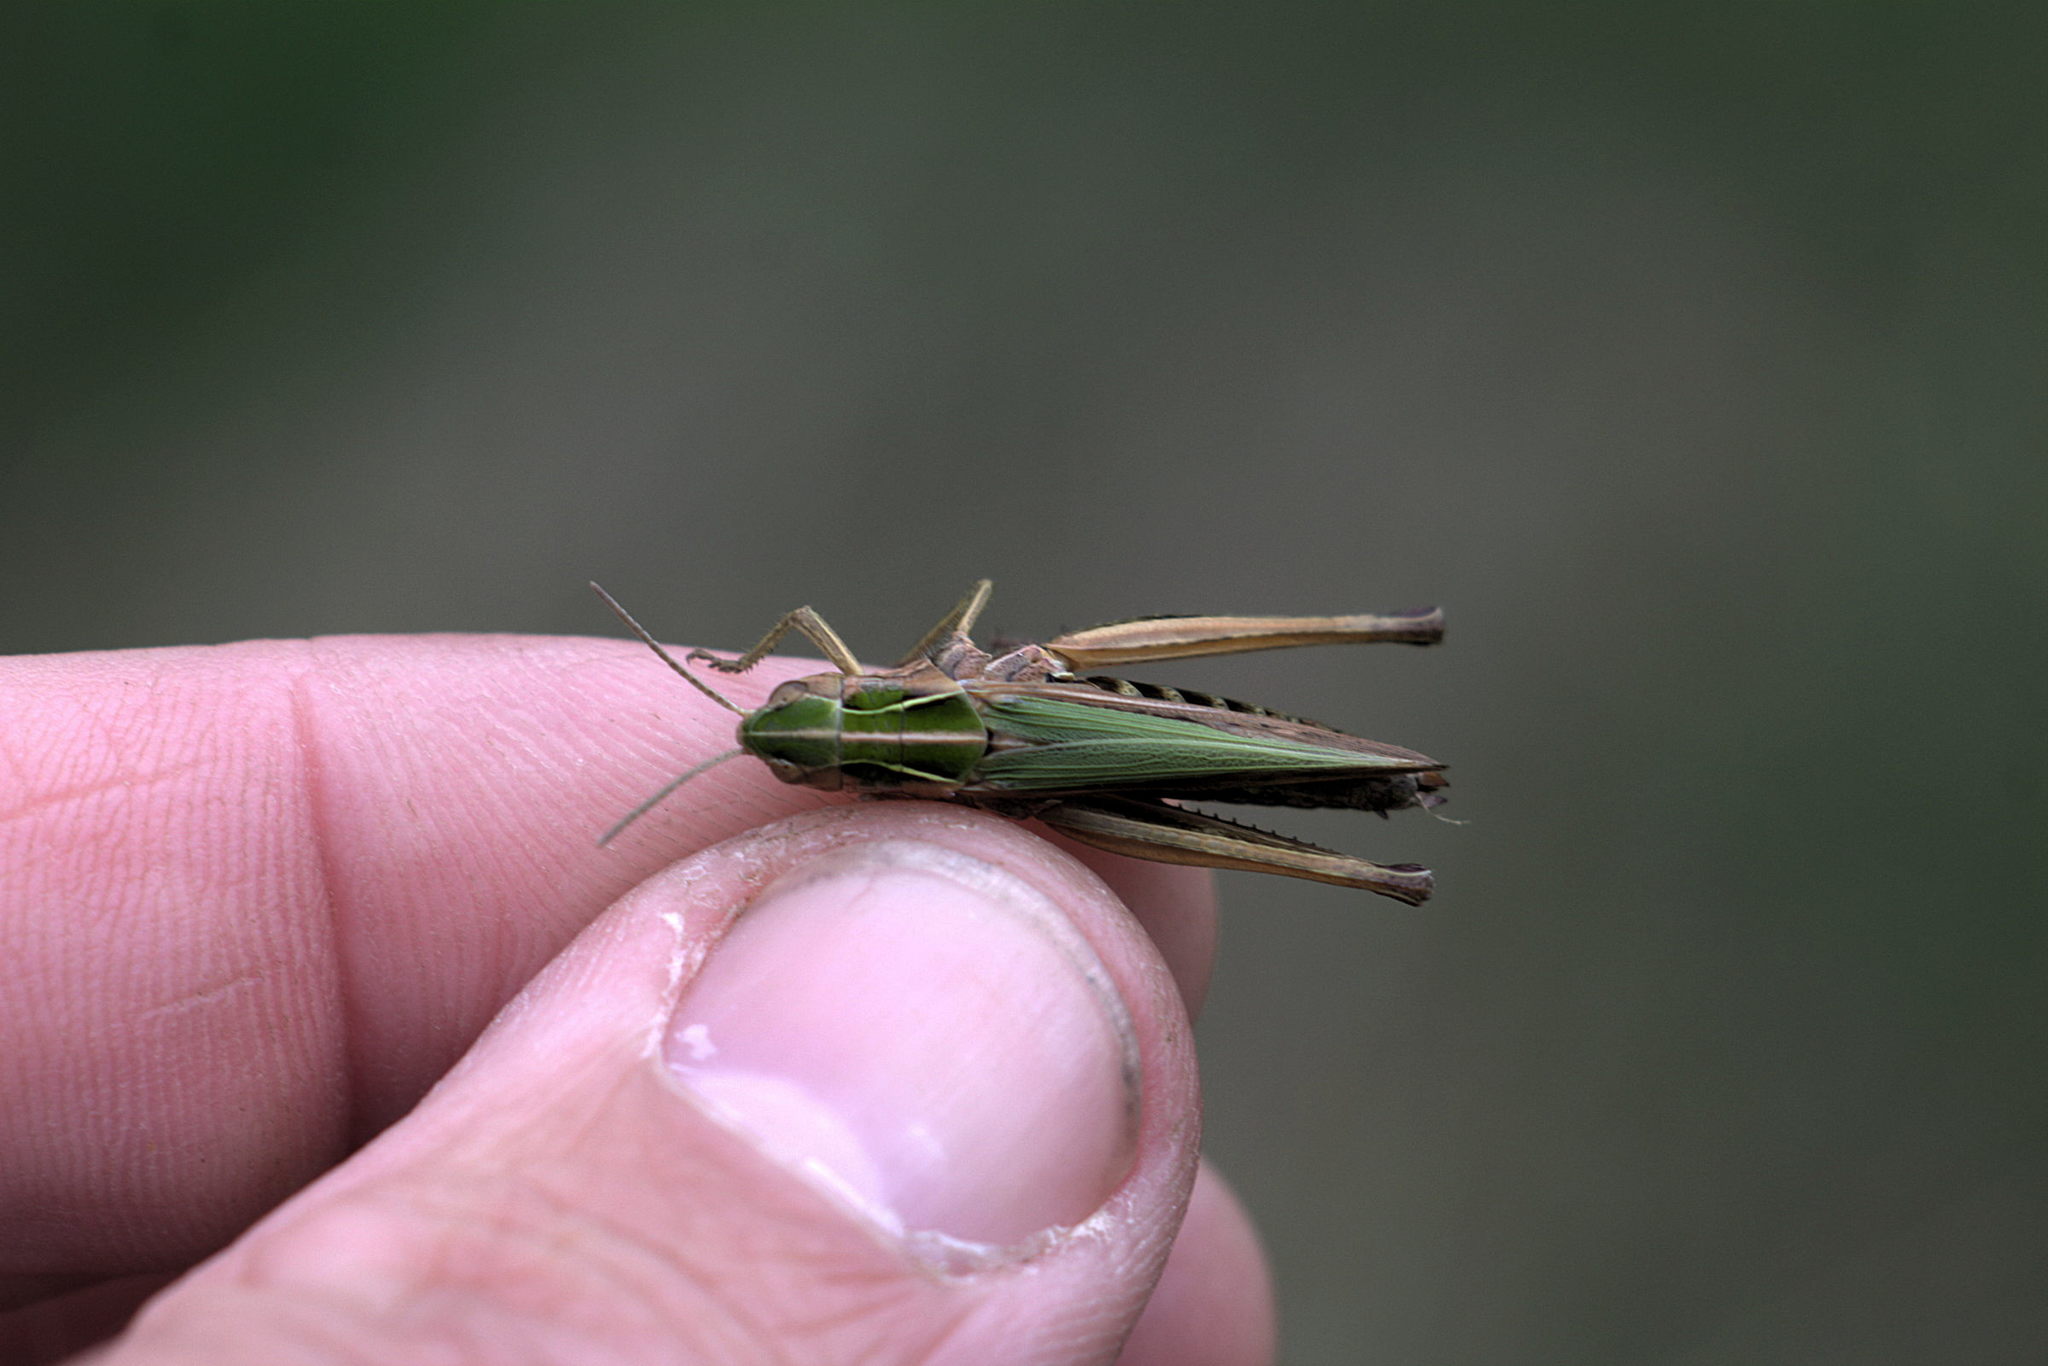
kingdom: Animalia
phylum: Arthropoda
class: Insecta
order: Orthoptera
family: Acrididae
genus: Omocestus
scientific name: Omocestus viridulus
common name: Common green grasshopper
